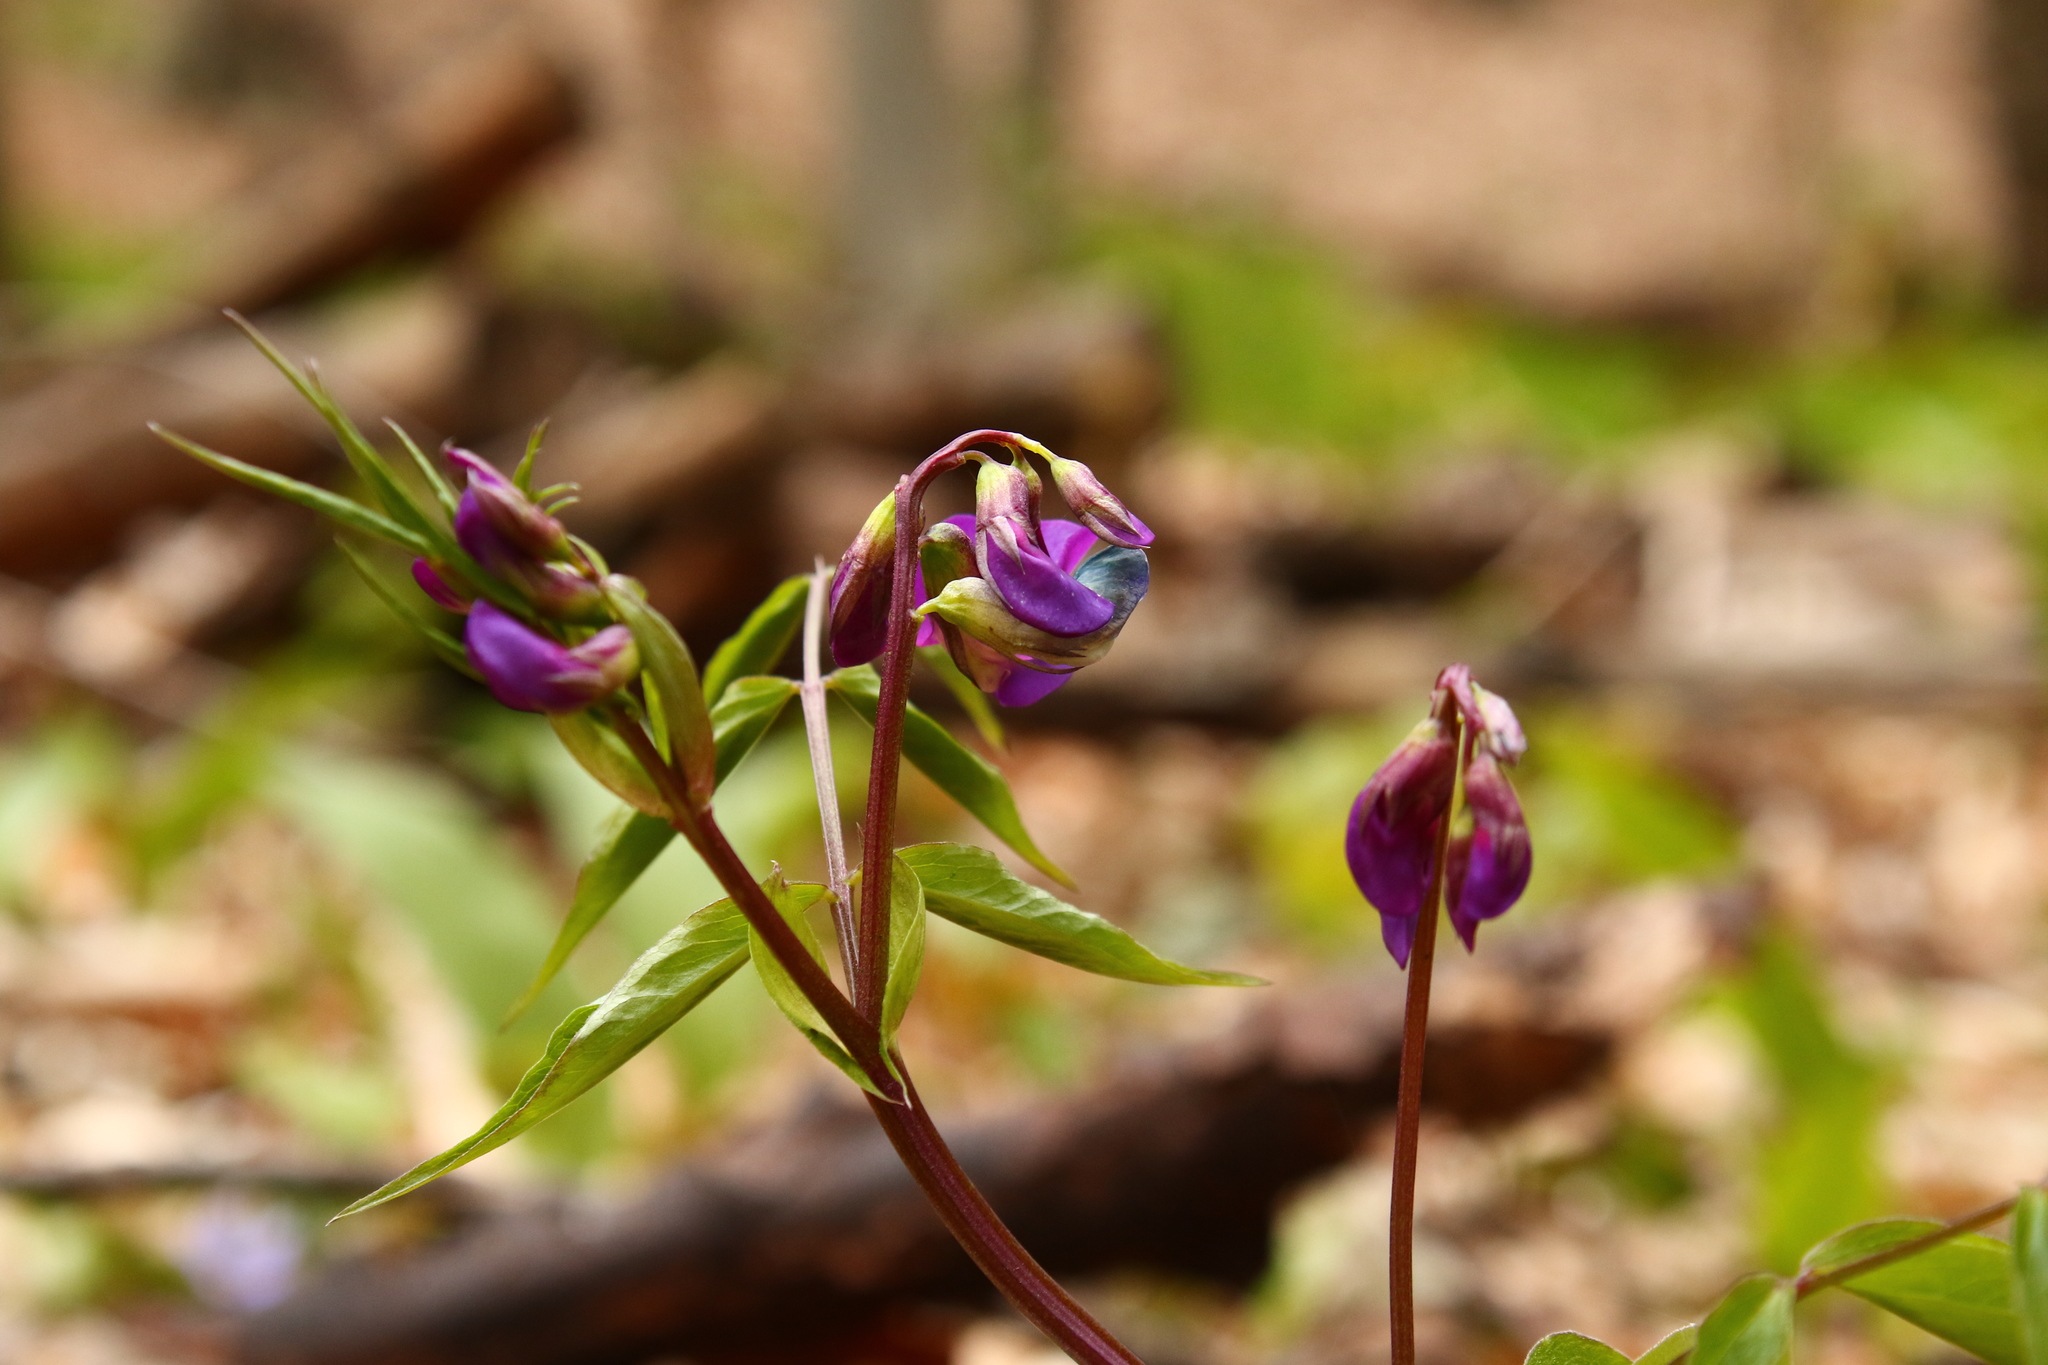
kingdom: Plantae
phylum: Tracheophyta
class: Magnoliopsida
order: Fabales
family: Fabaceae
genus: Lathyrus
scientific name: Lathyrus vernus
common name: Spring pea
